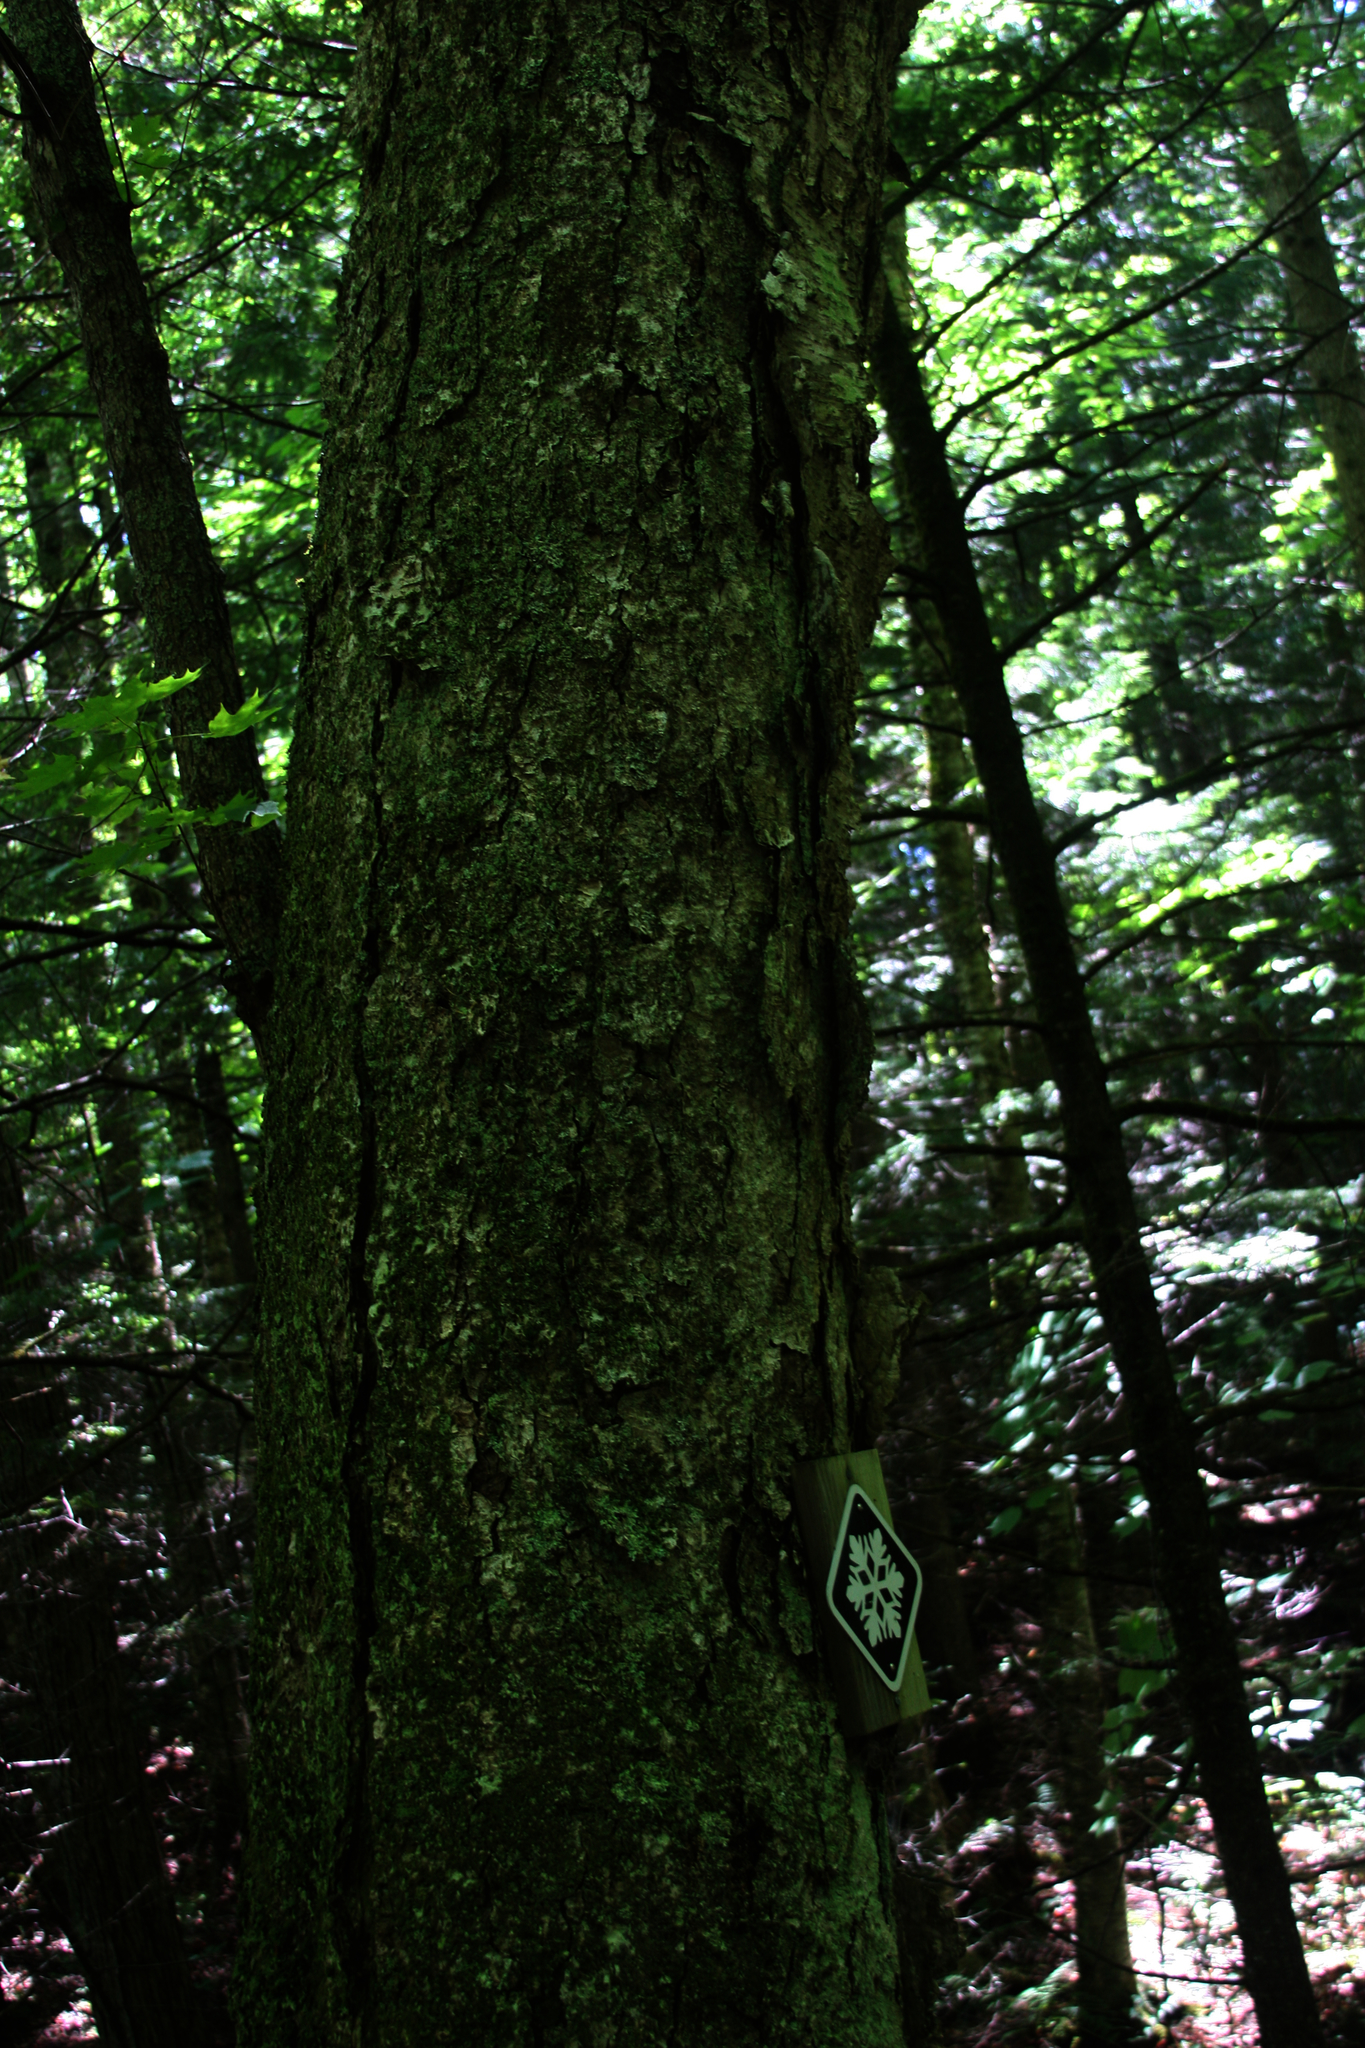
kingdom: Plantae
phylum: Tracheophyta
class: Magnoliopsida
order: Fagales
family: Betulaceae
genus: Betula
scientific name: Betula alleghaniensis
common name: Yellow birch
